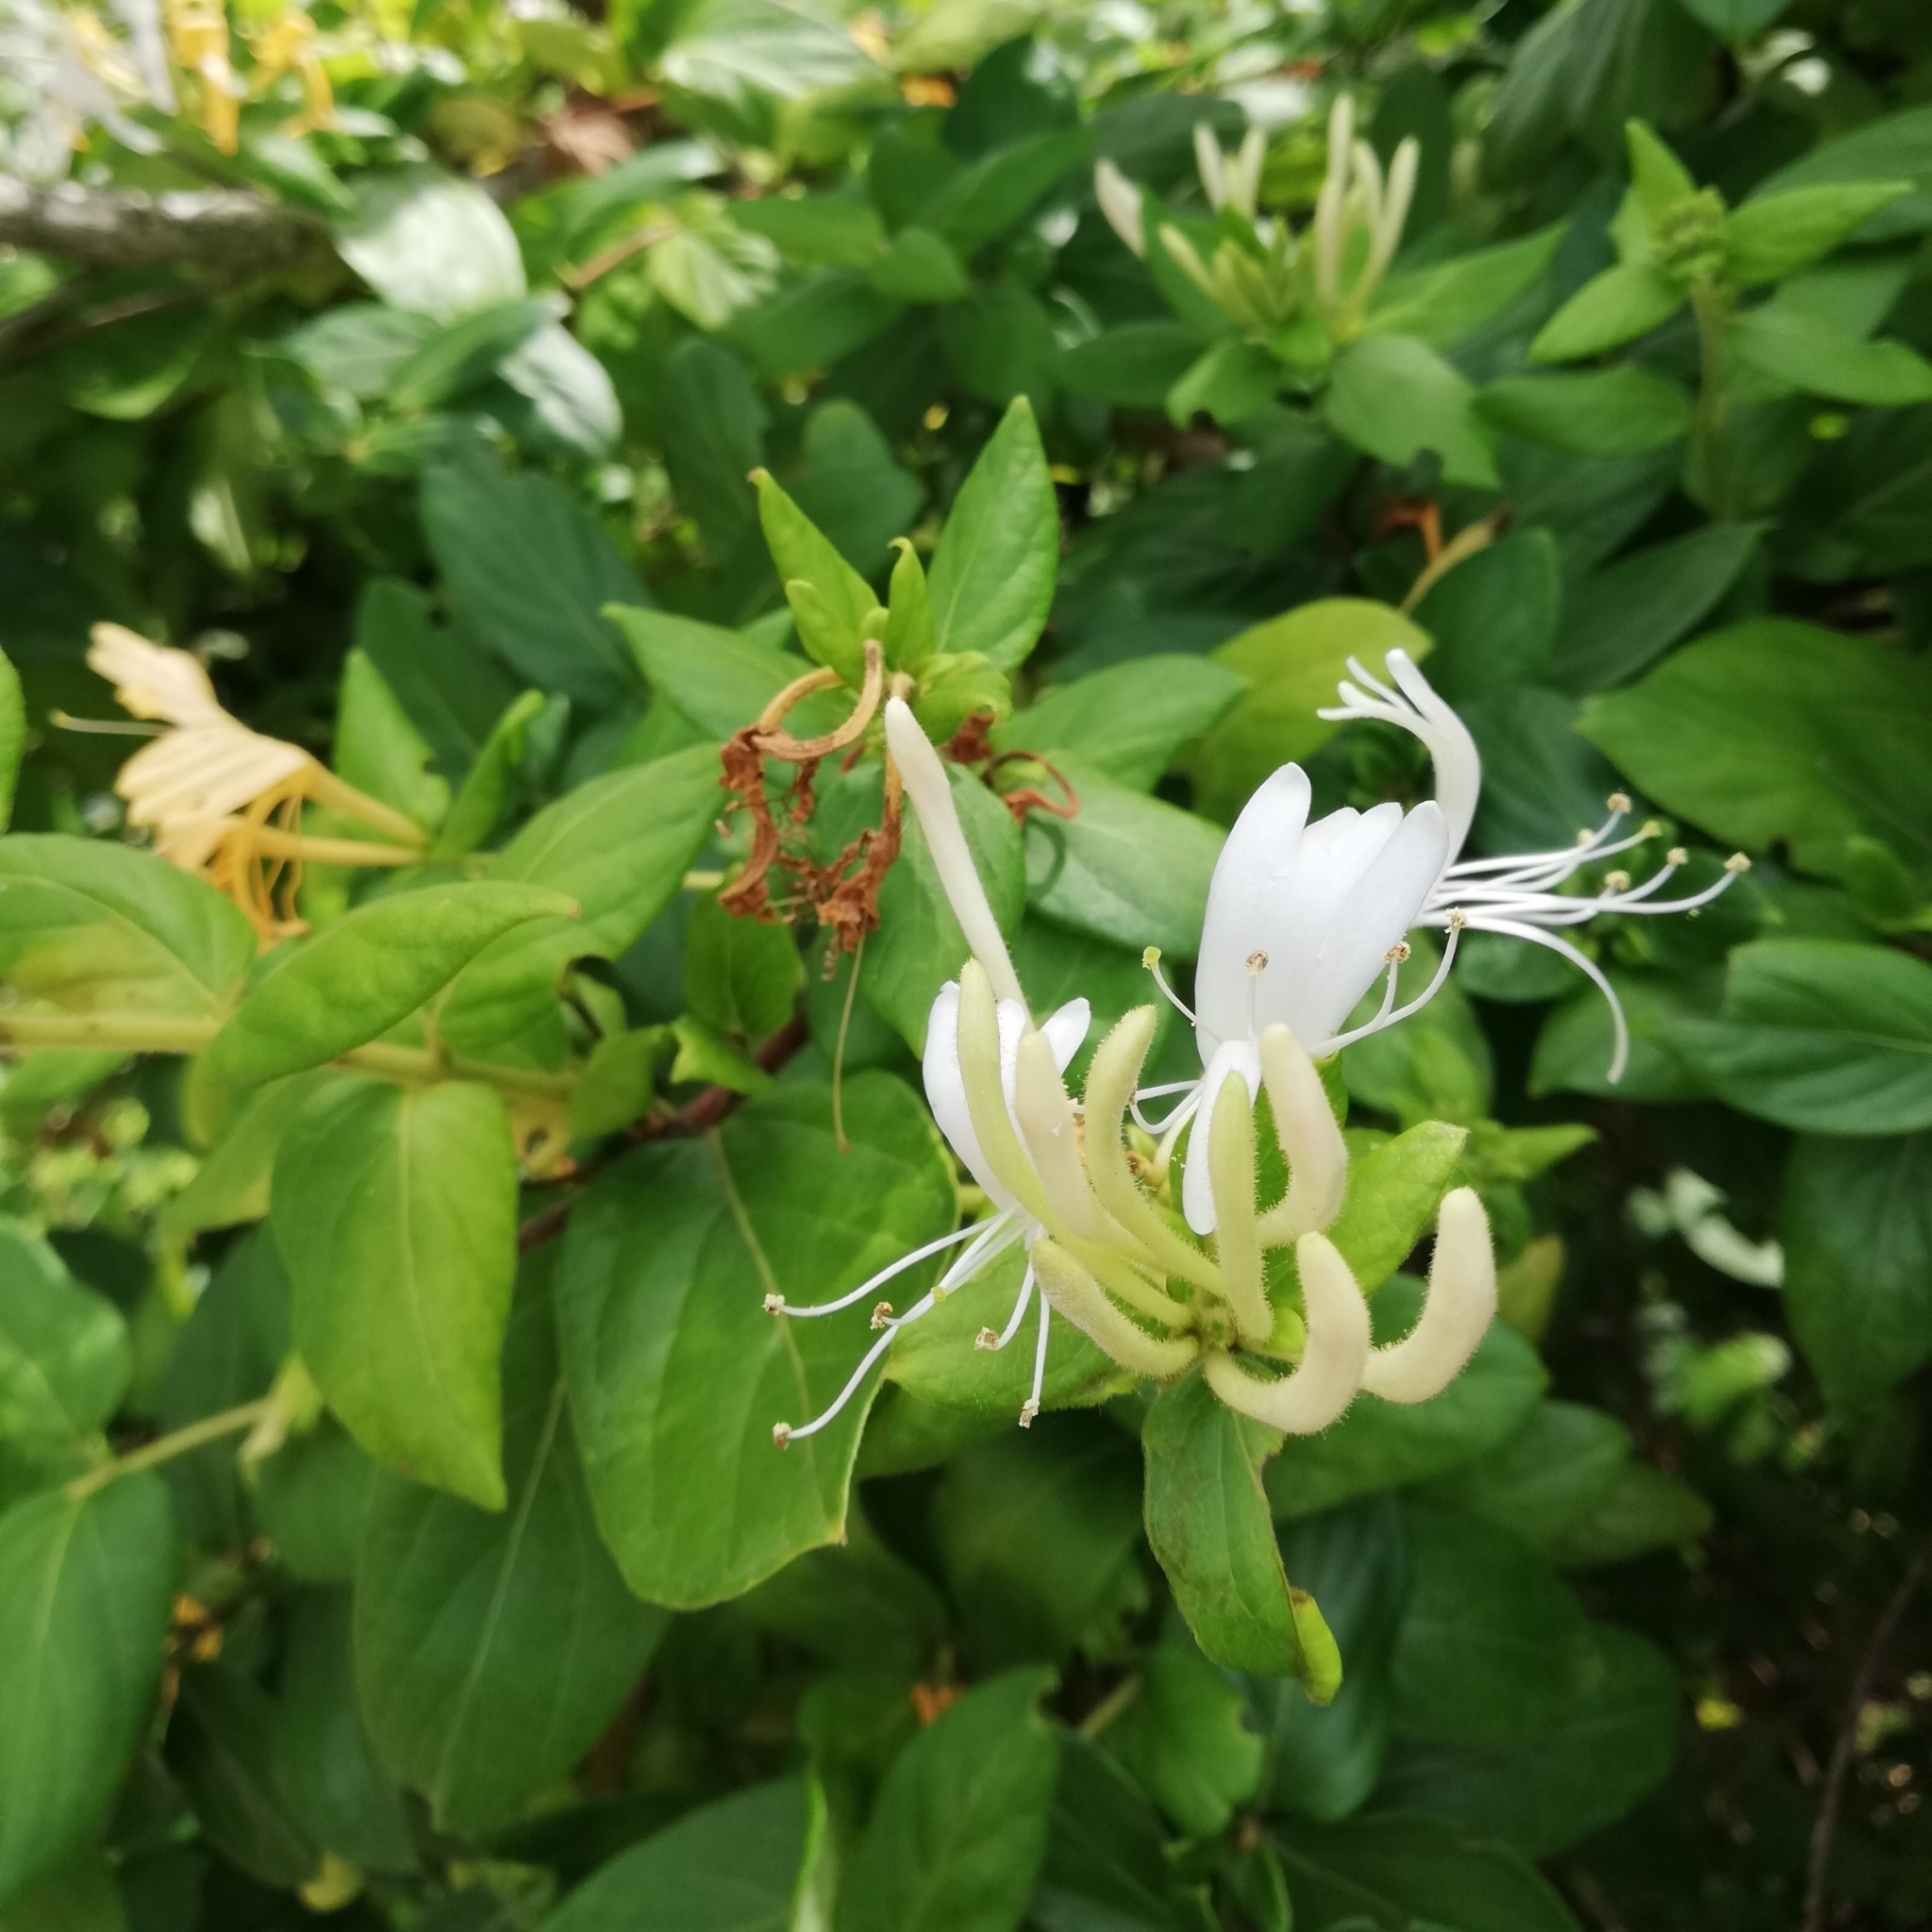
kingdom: Plantae
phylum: Tracheophyta
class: Magnoliopsida
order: Dipsacales
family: Caprifoliaceae
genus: Lonicera
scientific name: Lonicera japonica
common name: Japanese honeysuckle
